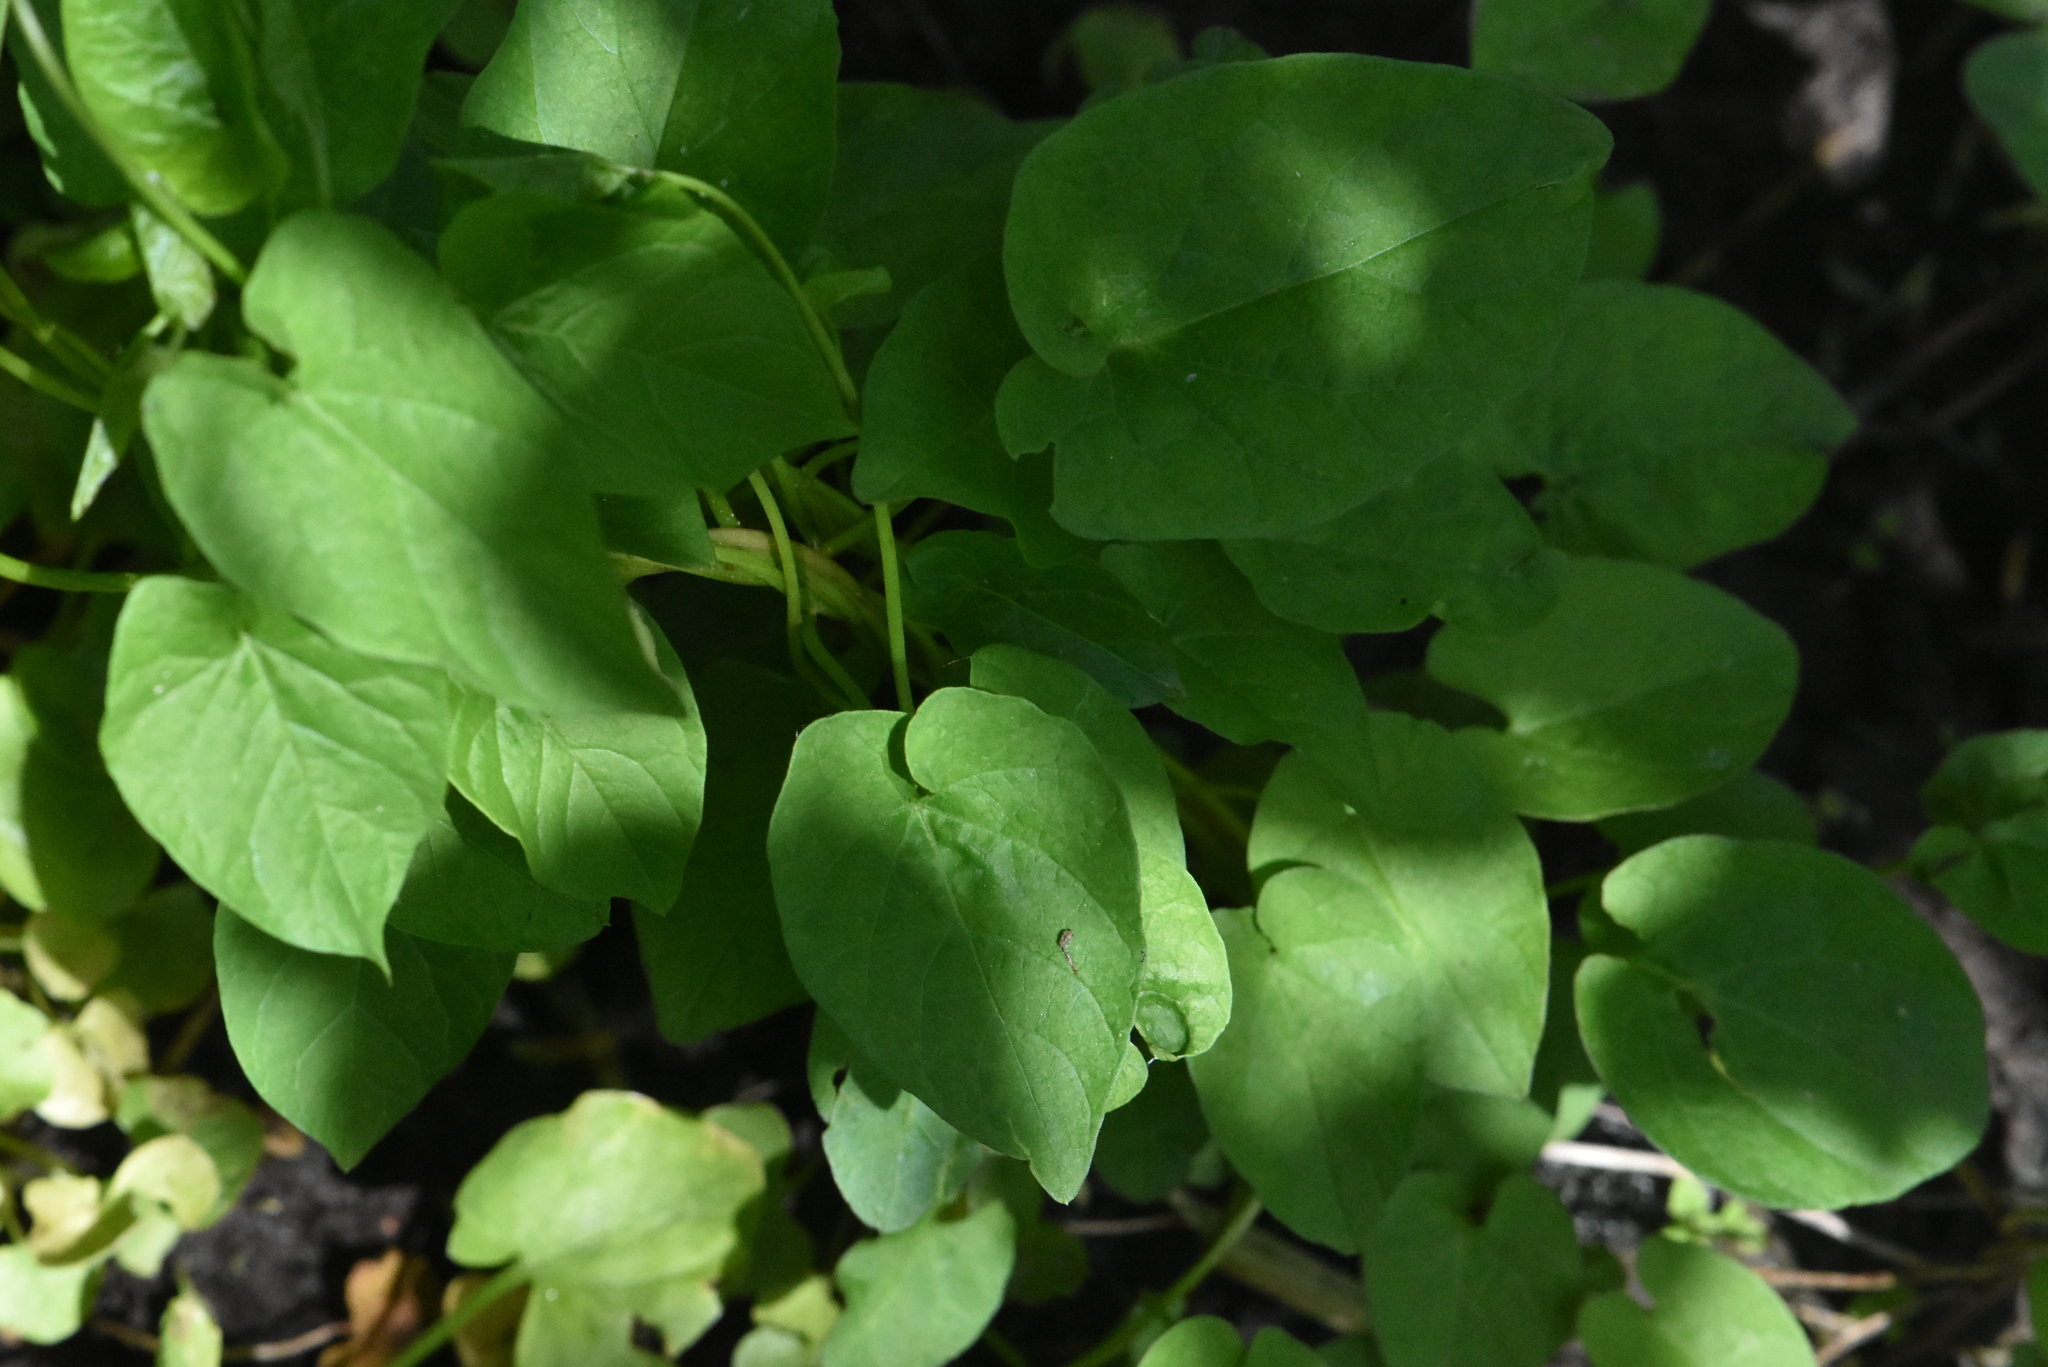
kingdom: Plantae
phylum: Tracheophyta
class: Magnoliopsida
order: Solanales
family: Convolvulaceae
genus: Calystegia
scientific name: Calystegia
